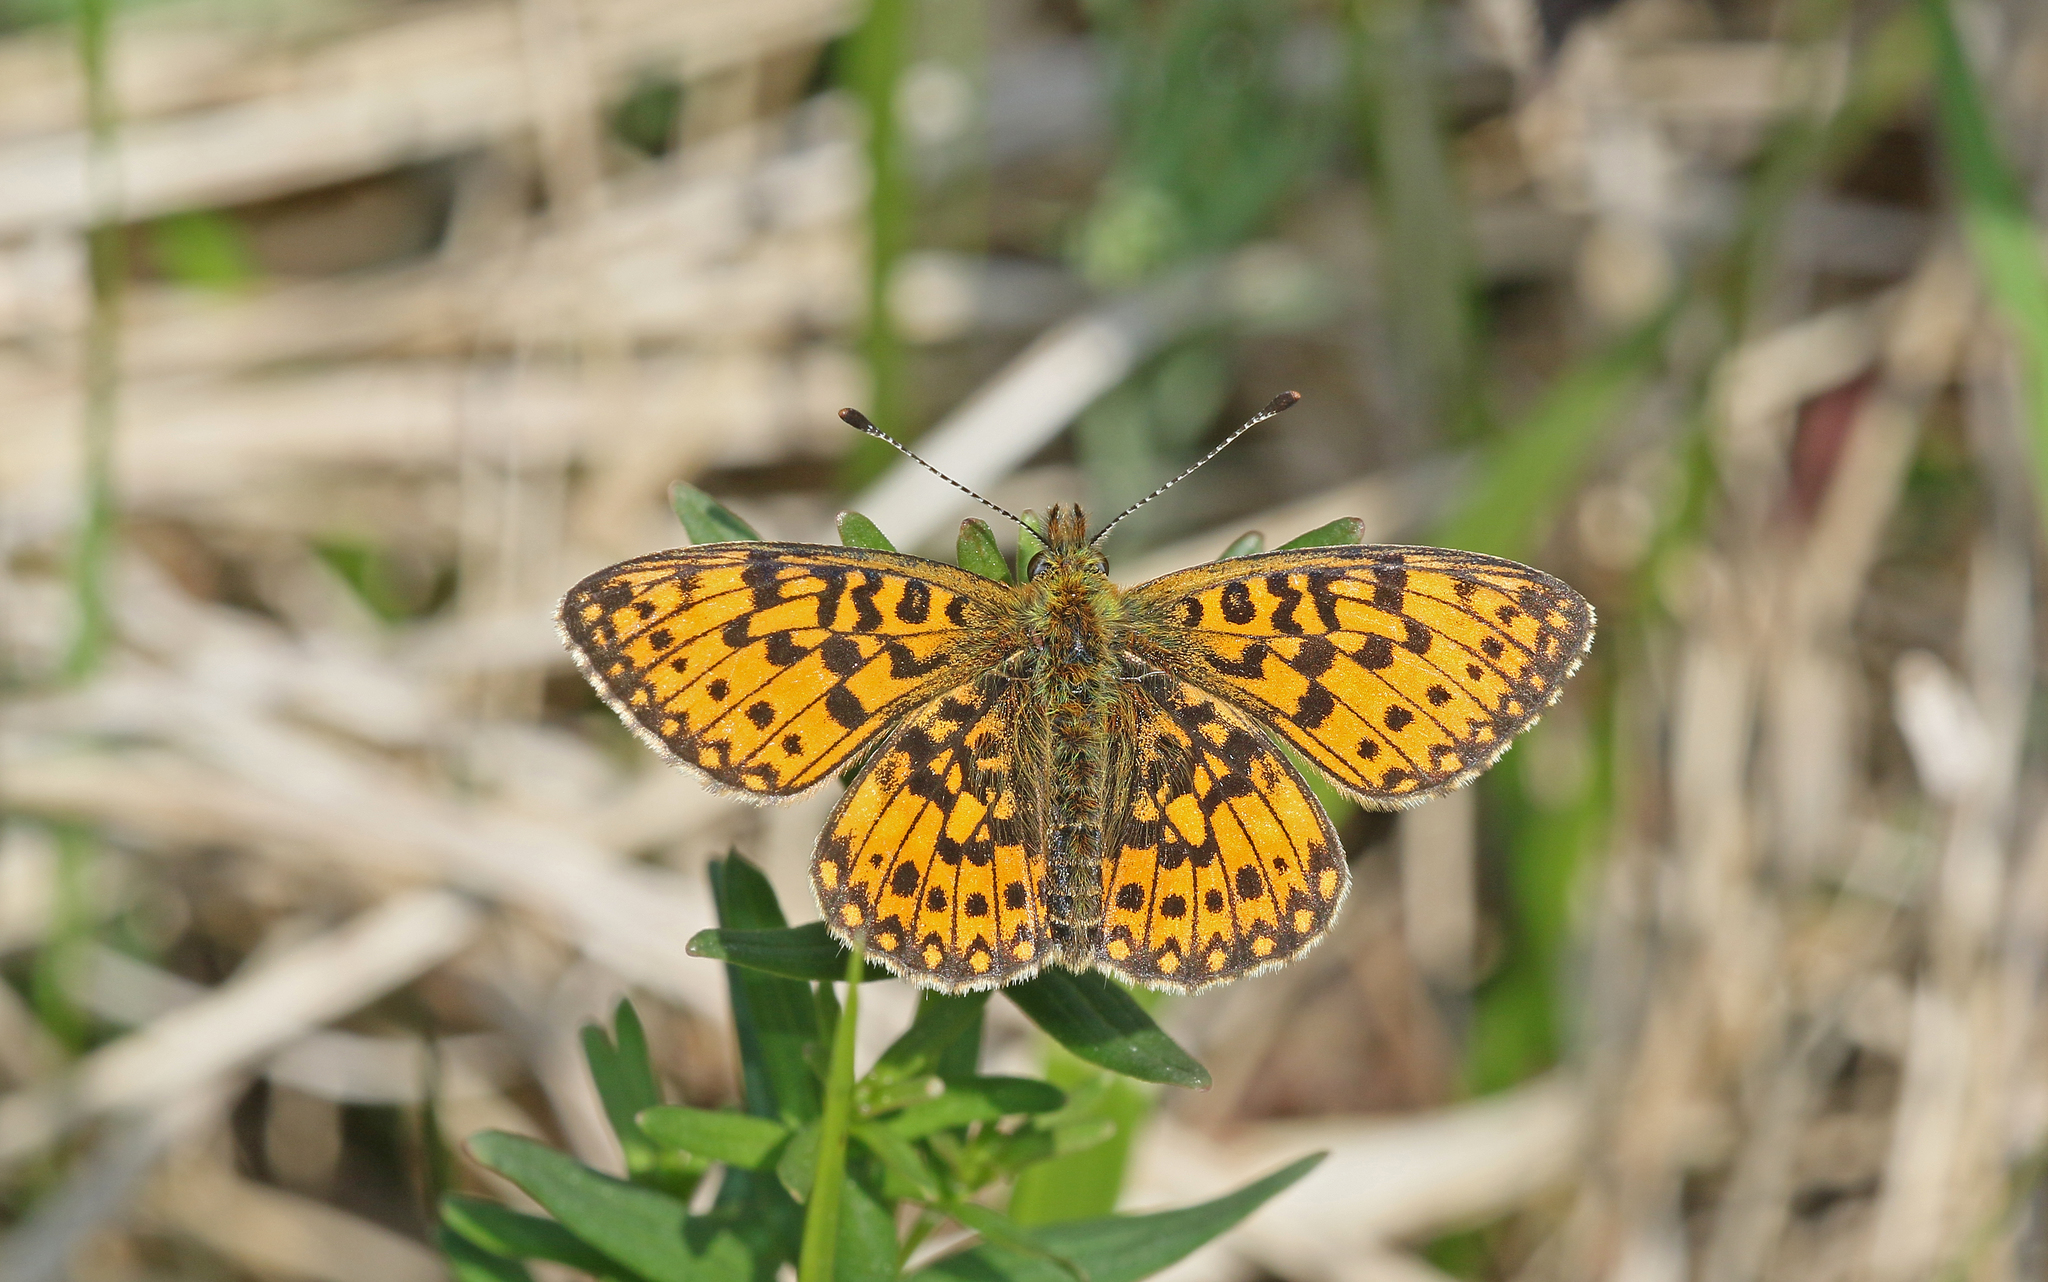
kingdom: Animalia
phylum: Arthropoda
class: Insecta
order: Lepidoptera
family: Nymphalidae
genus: Boloria
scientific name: Boloria selene
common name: Small pearl-bordered fritillary
